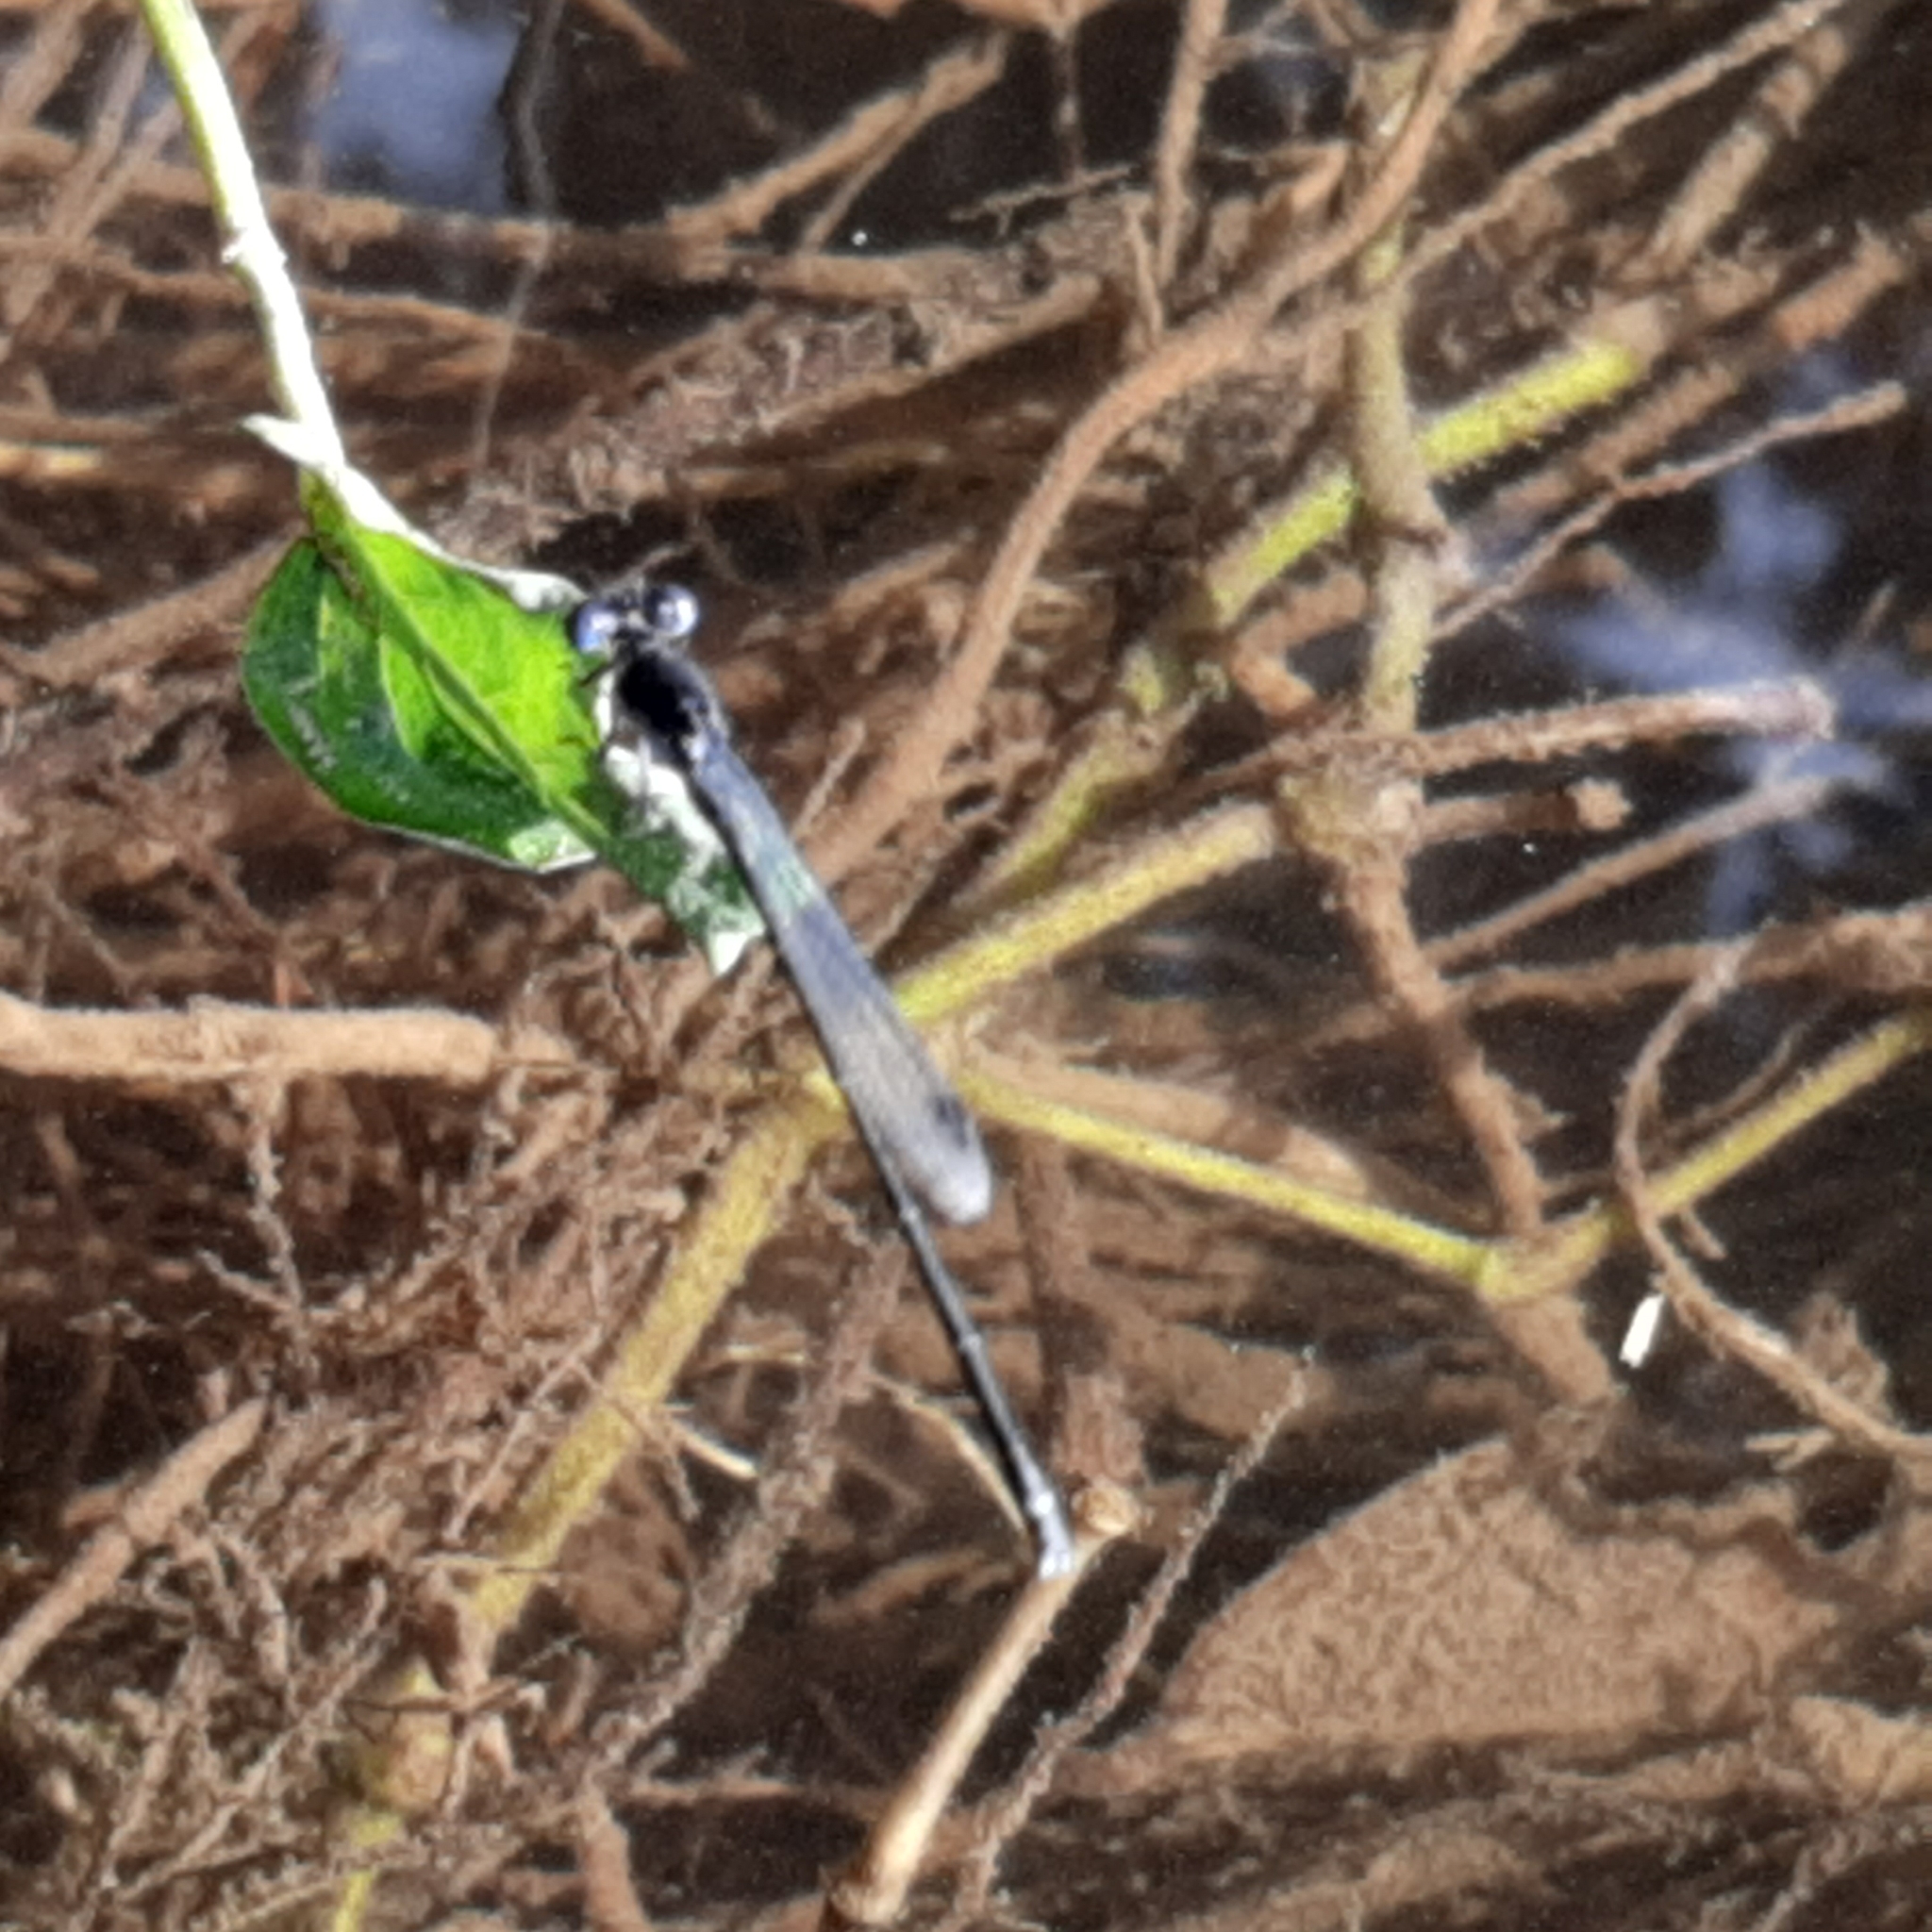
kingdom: Animalia
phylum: Arthropoda
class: Insecta
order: Odonata
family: Coenagrionidae
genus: Argia
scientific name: Argia translata
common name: Dusky dancer
